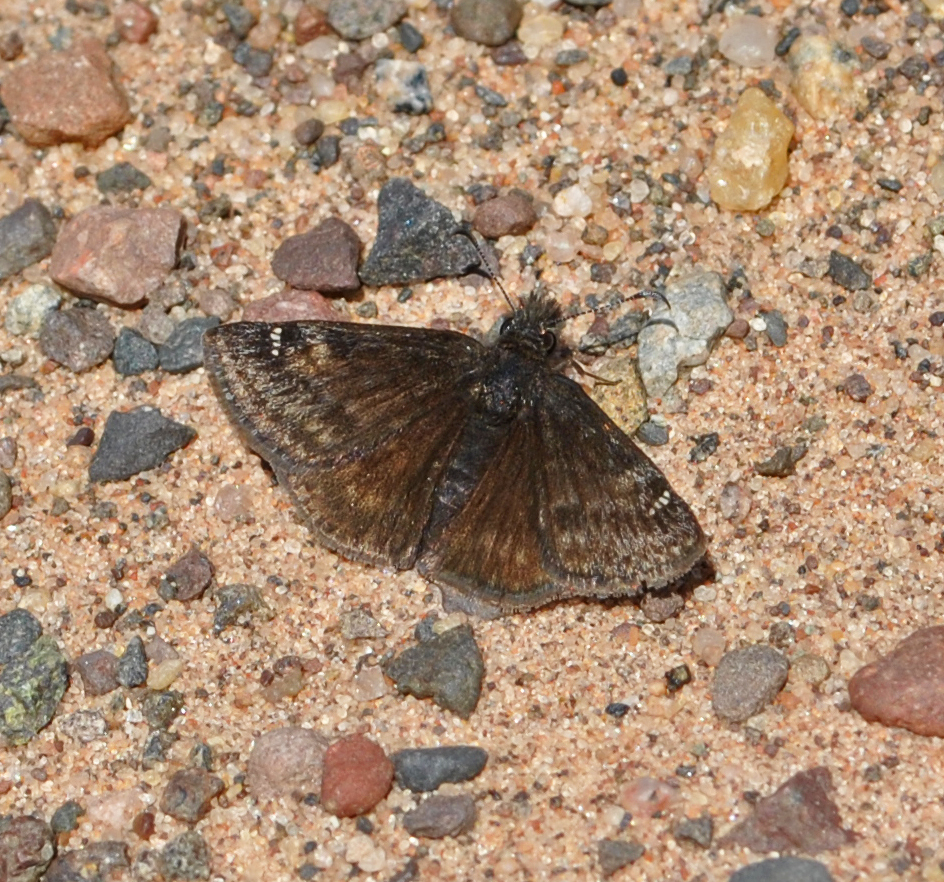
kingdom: Animalia
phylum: Arthropoda
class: Insecta
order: Lepidoptera
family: Hesperiidae
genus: Erynnis
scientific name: Erynnis persius
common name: Persius duskywing
